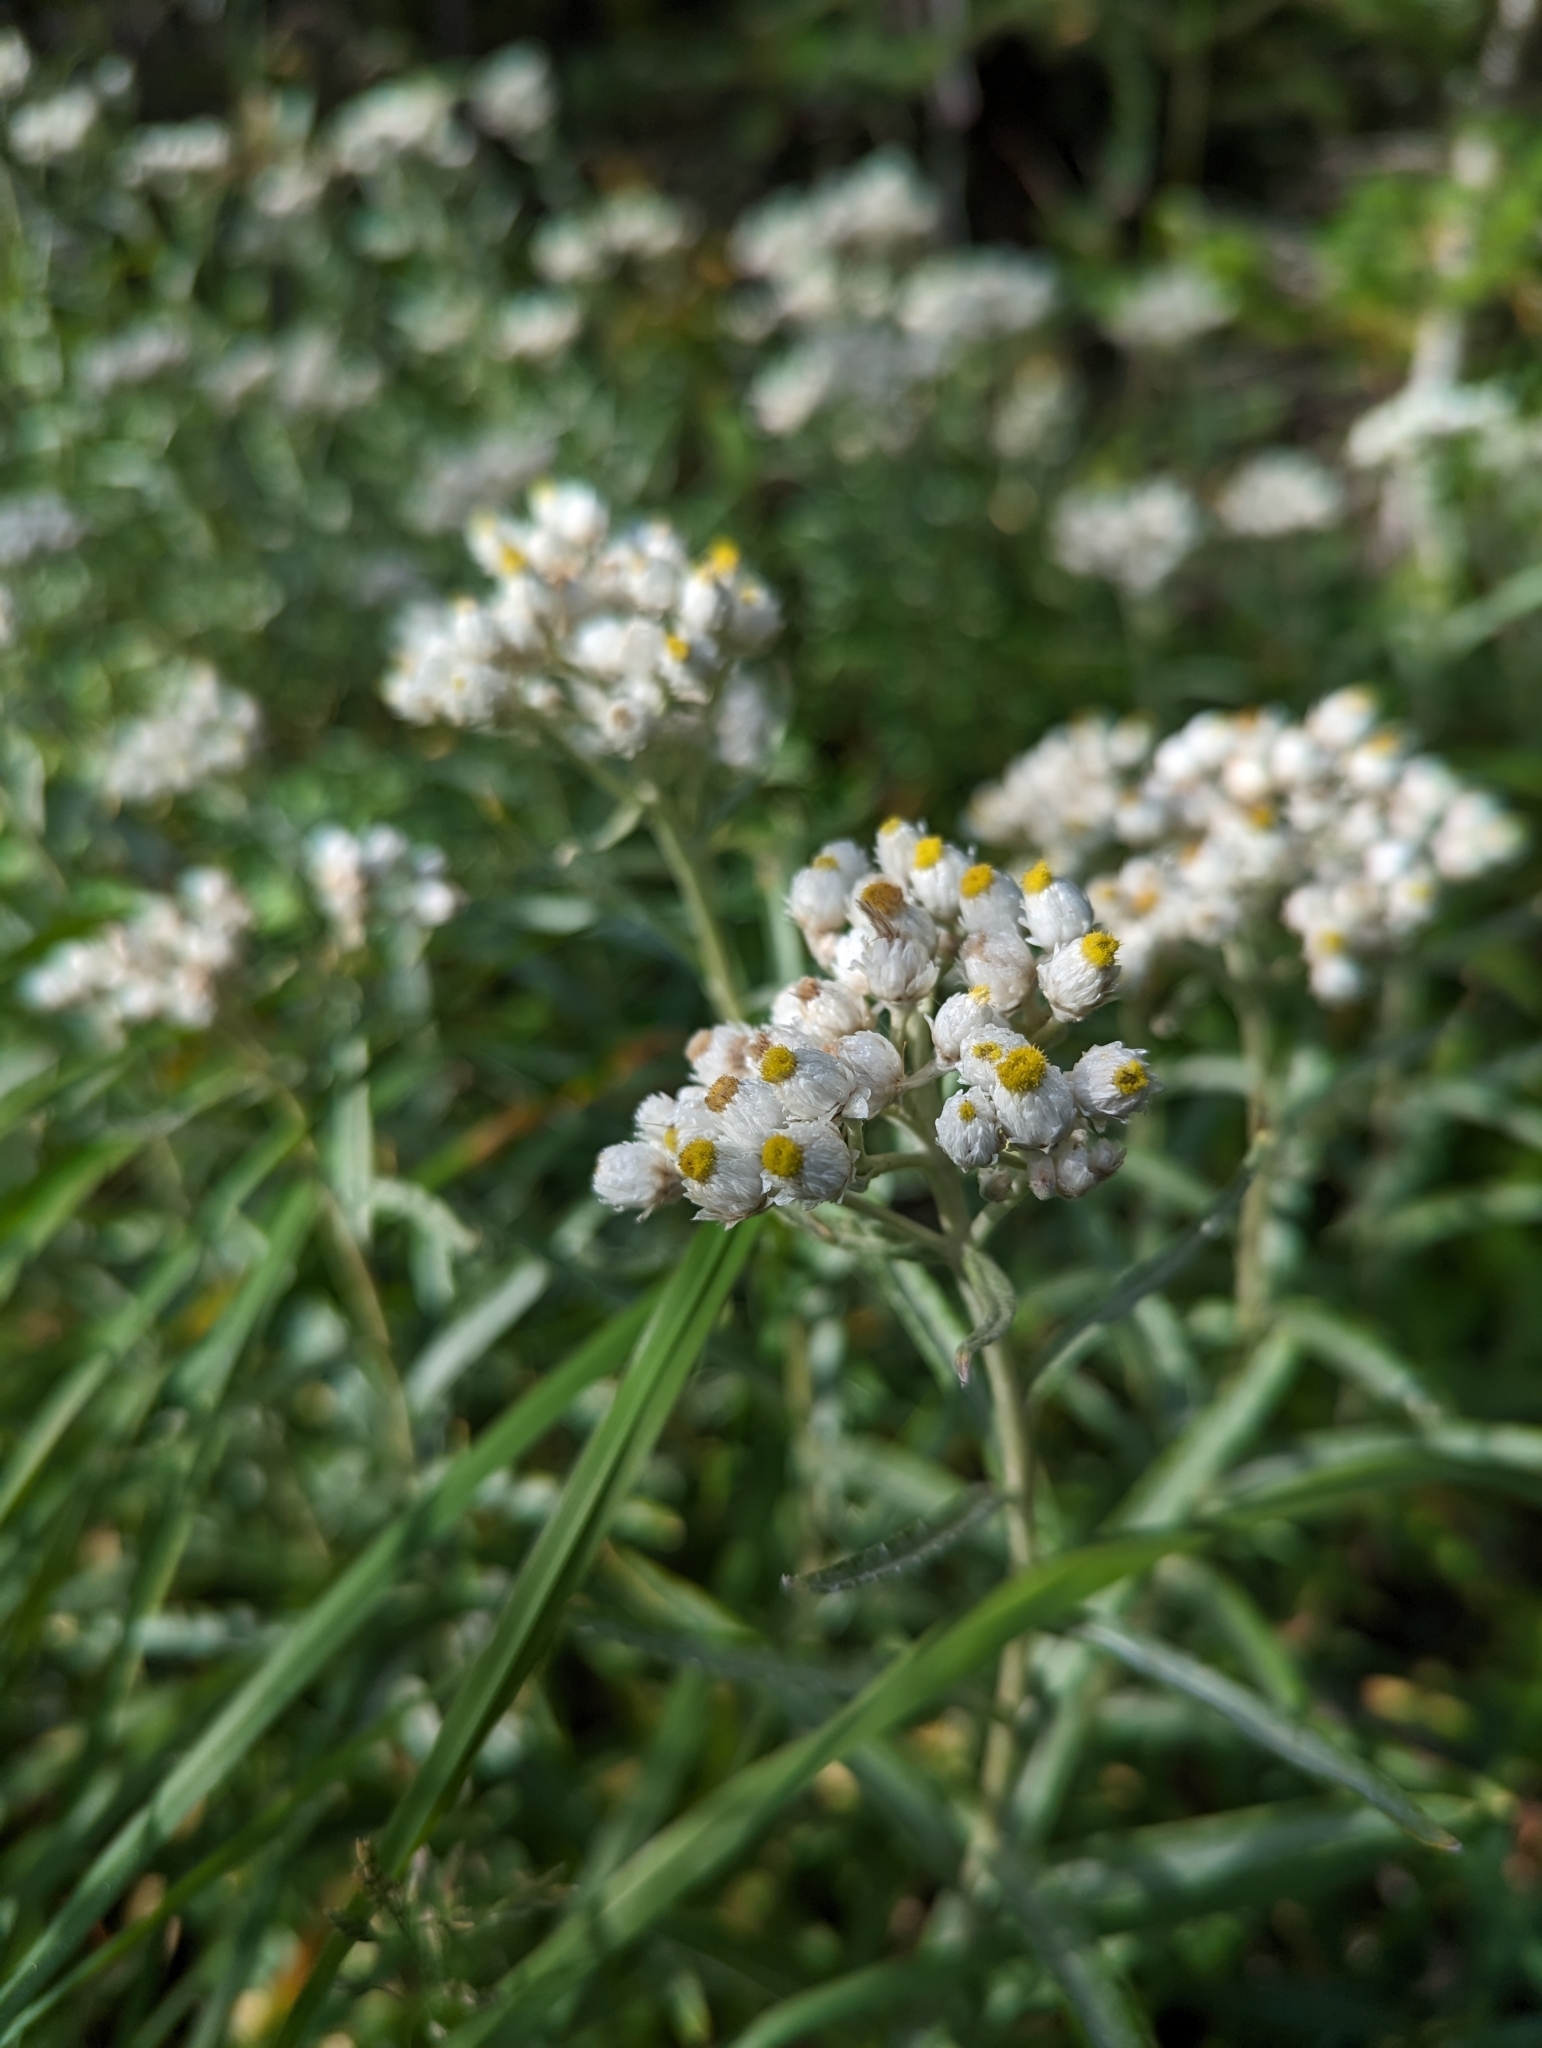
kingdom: Plantae
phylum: Tracheophyta
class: Magnoliopsida
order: Asterales
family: Asteraceae
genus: Anaphalis
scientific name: Anaphalis margaritacea
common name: Pearly everlasting
